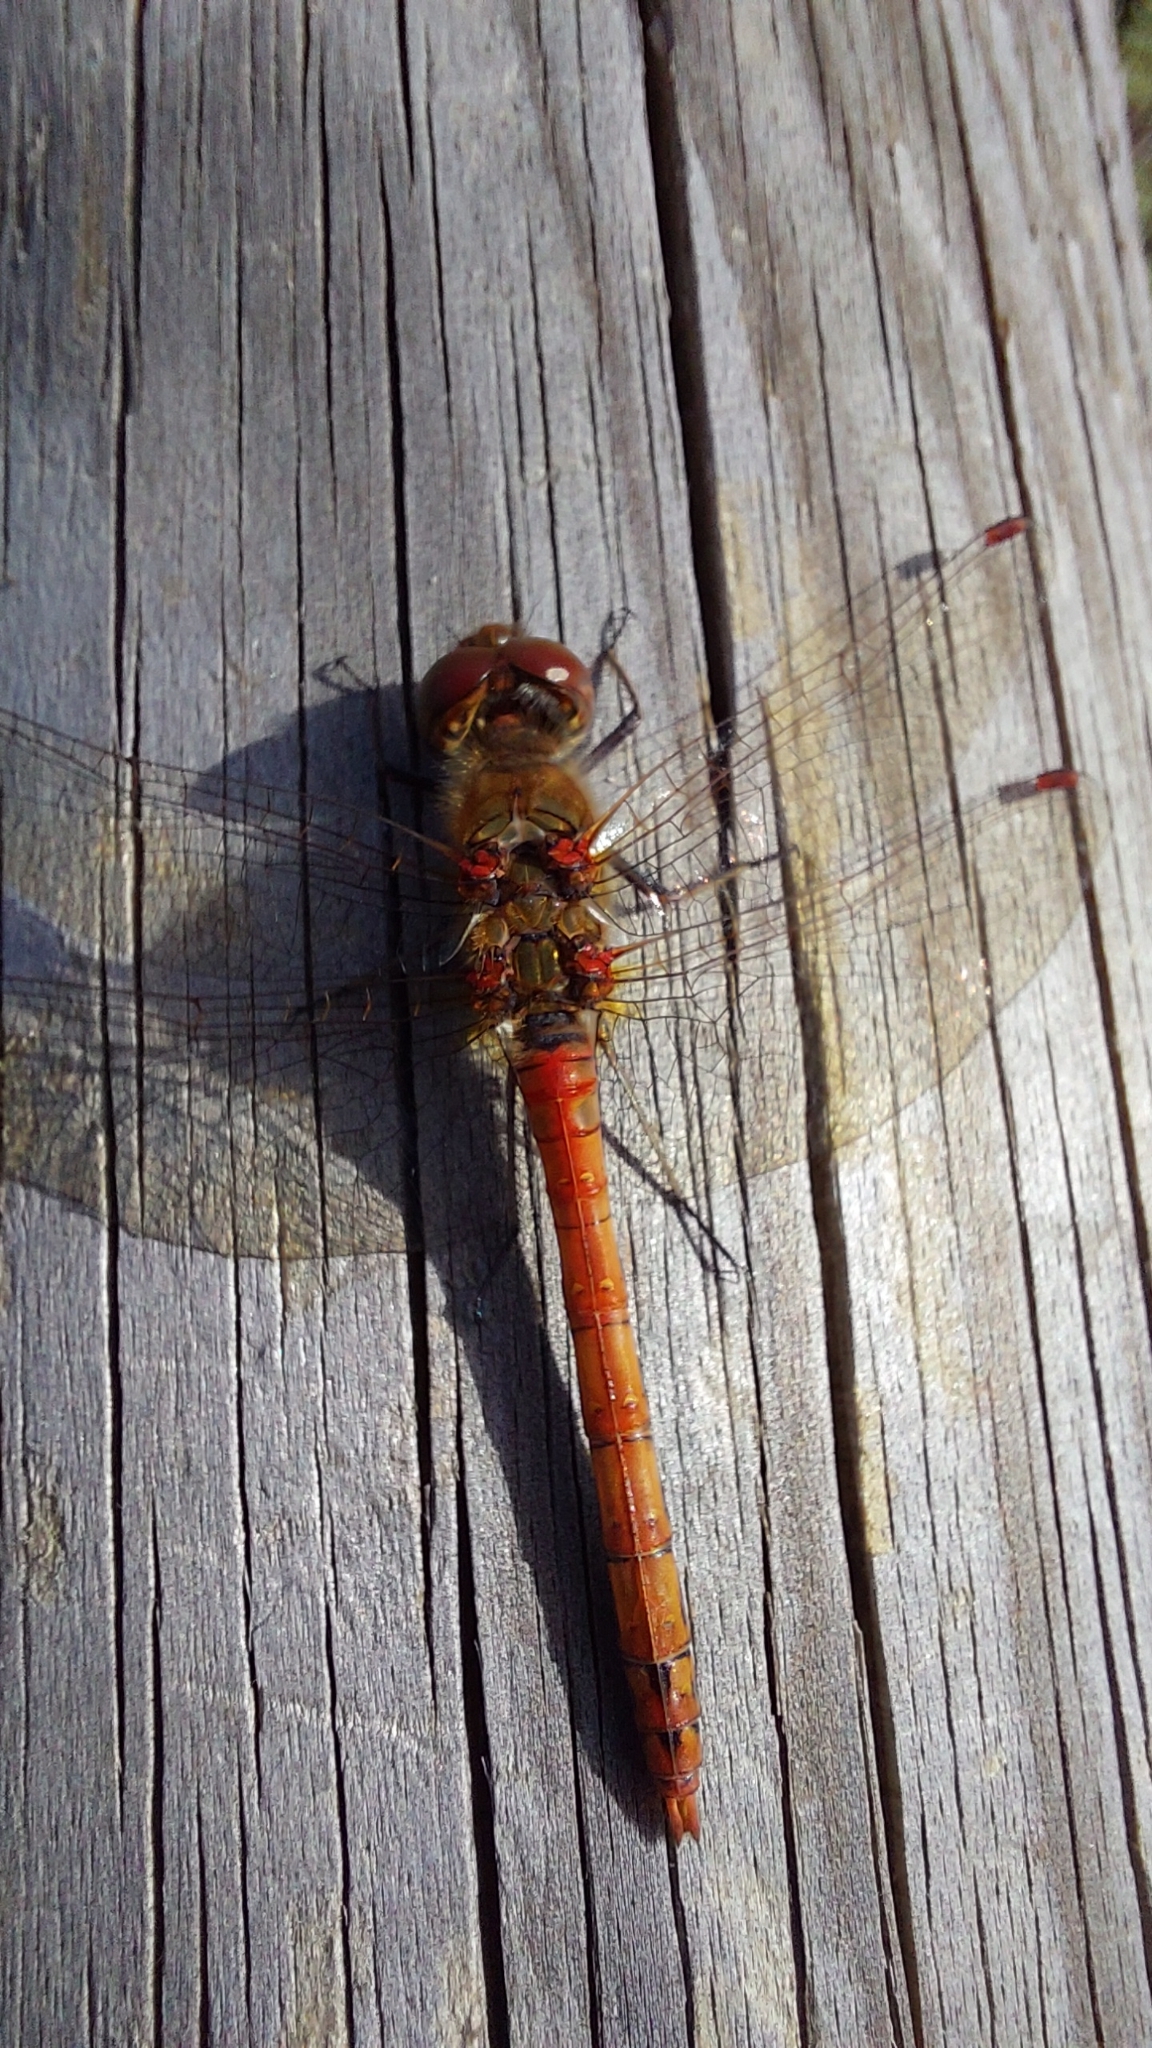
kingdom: Animalia
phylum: Arthropoda
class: Insecta
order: Odonata
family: Libellulidae
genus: Sympetrum
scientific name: Sympetrum striolatum
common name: Common darter
